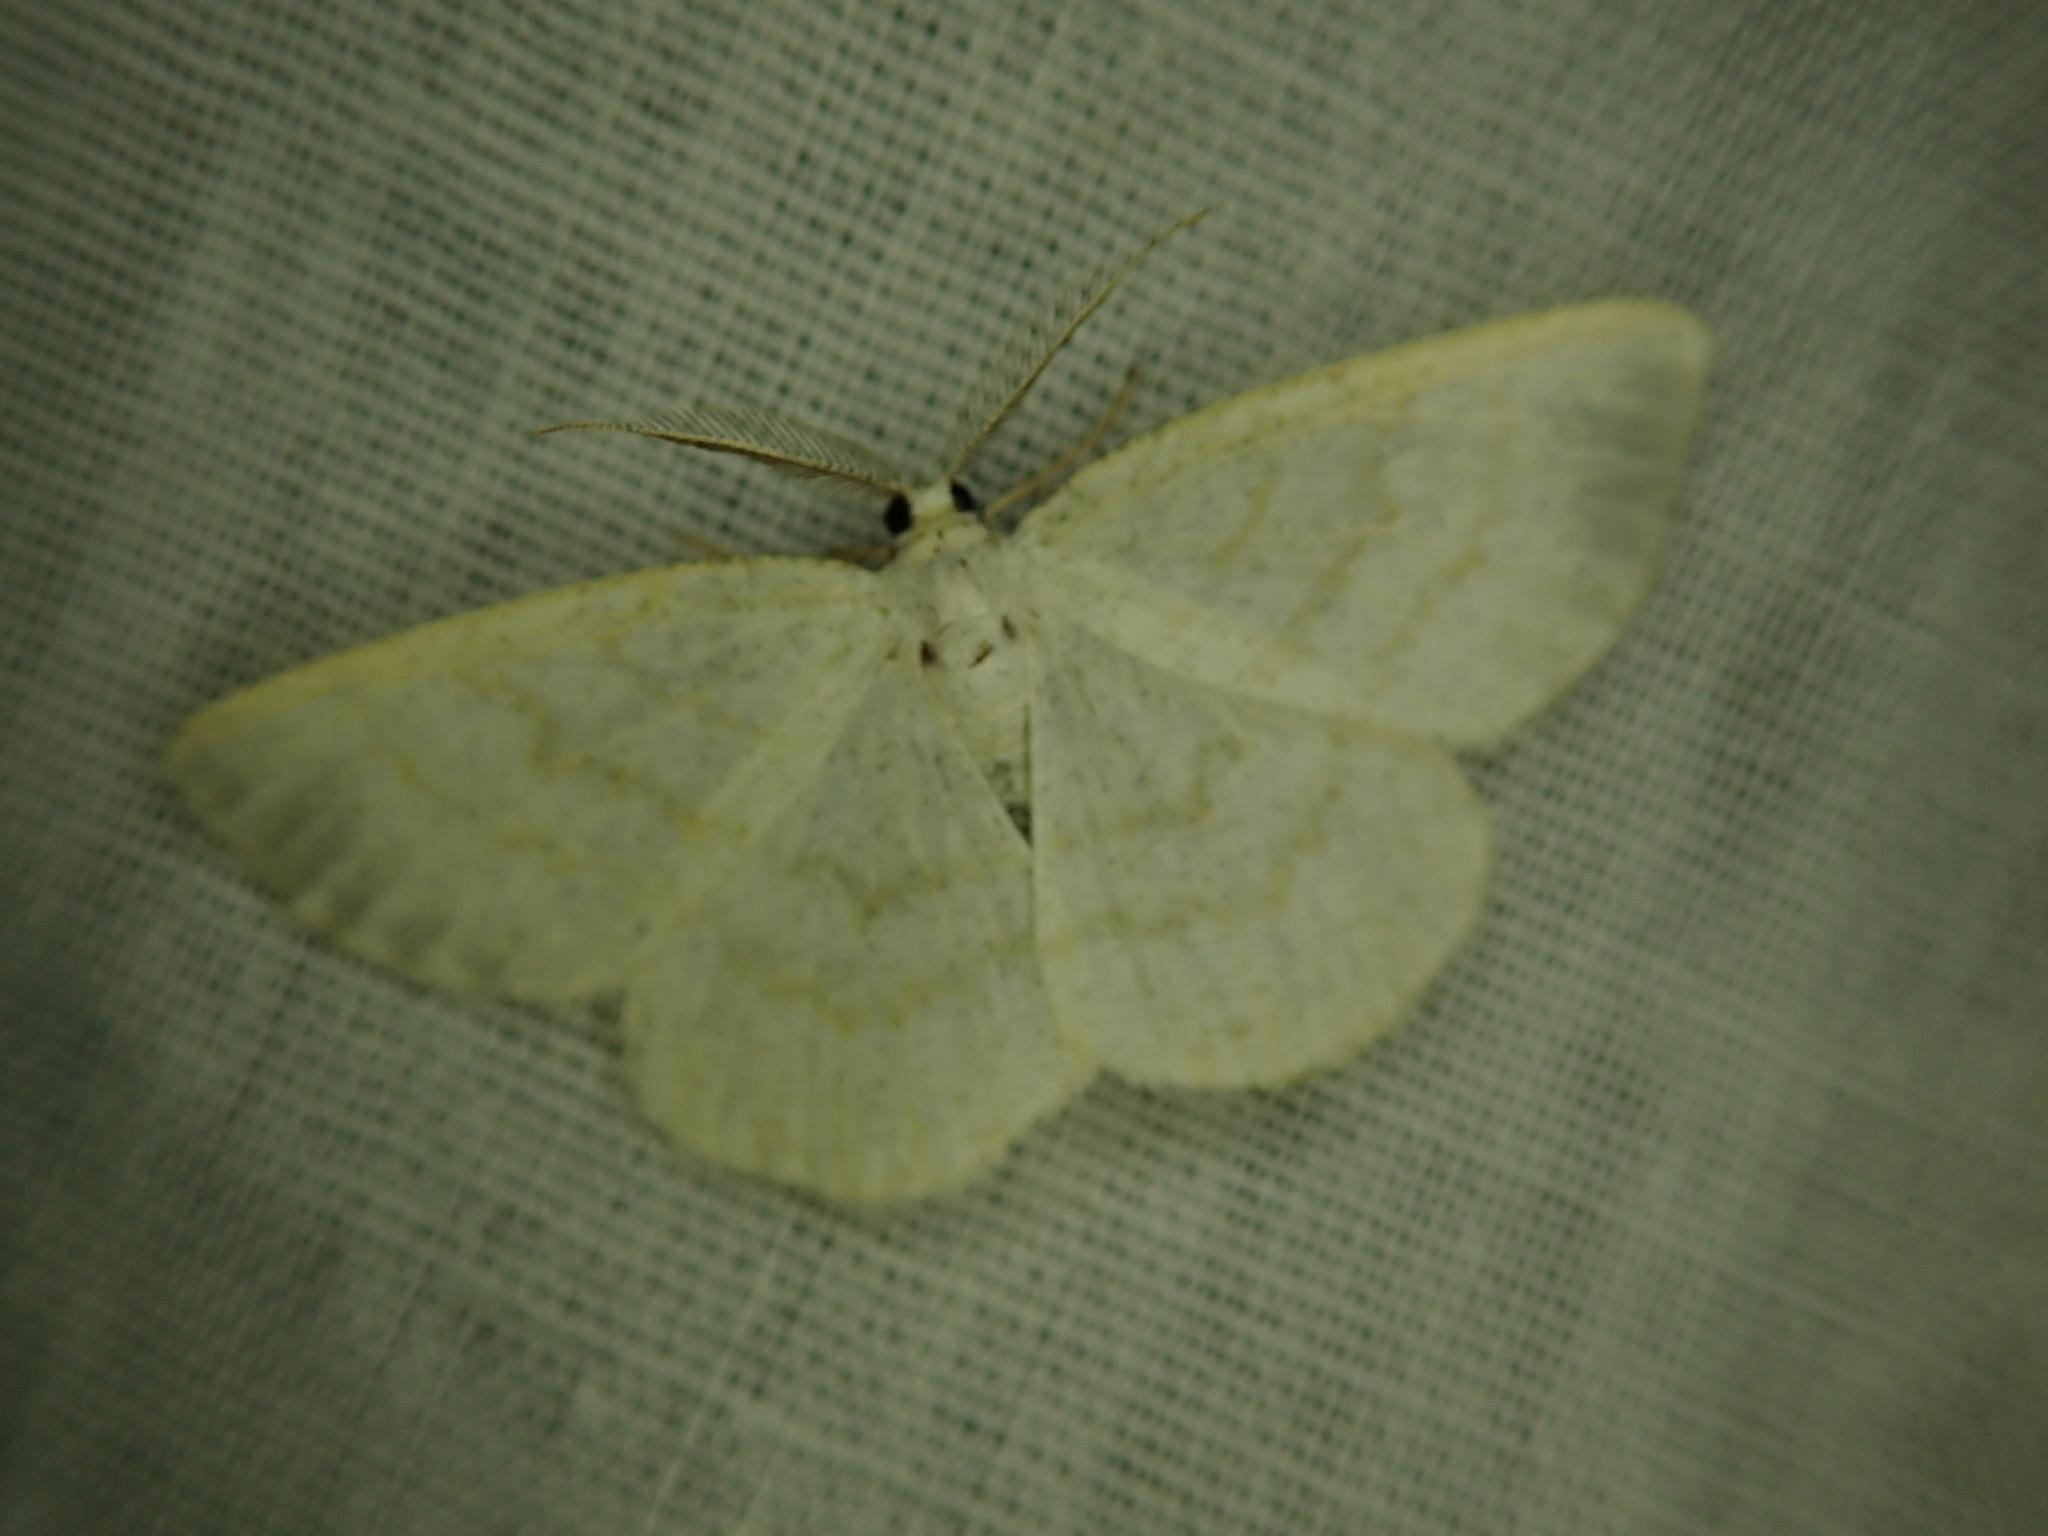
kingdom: Animalia
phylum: Arthropoda
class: Insecta
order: Lepidoptera
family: Geometridae
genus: Cabera
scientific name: Cabera exanthemata
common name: Common wave
